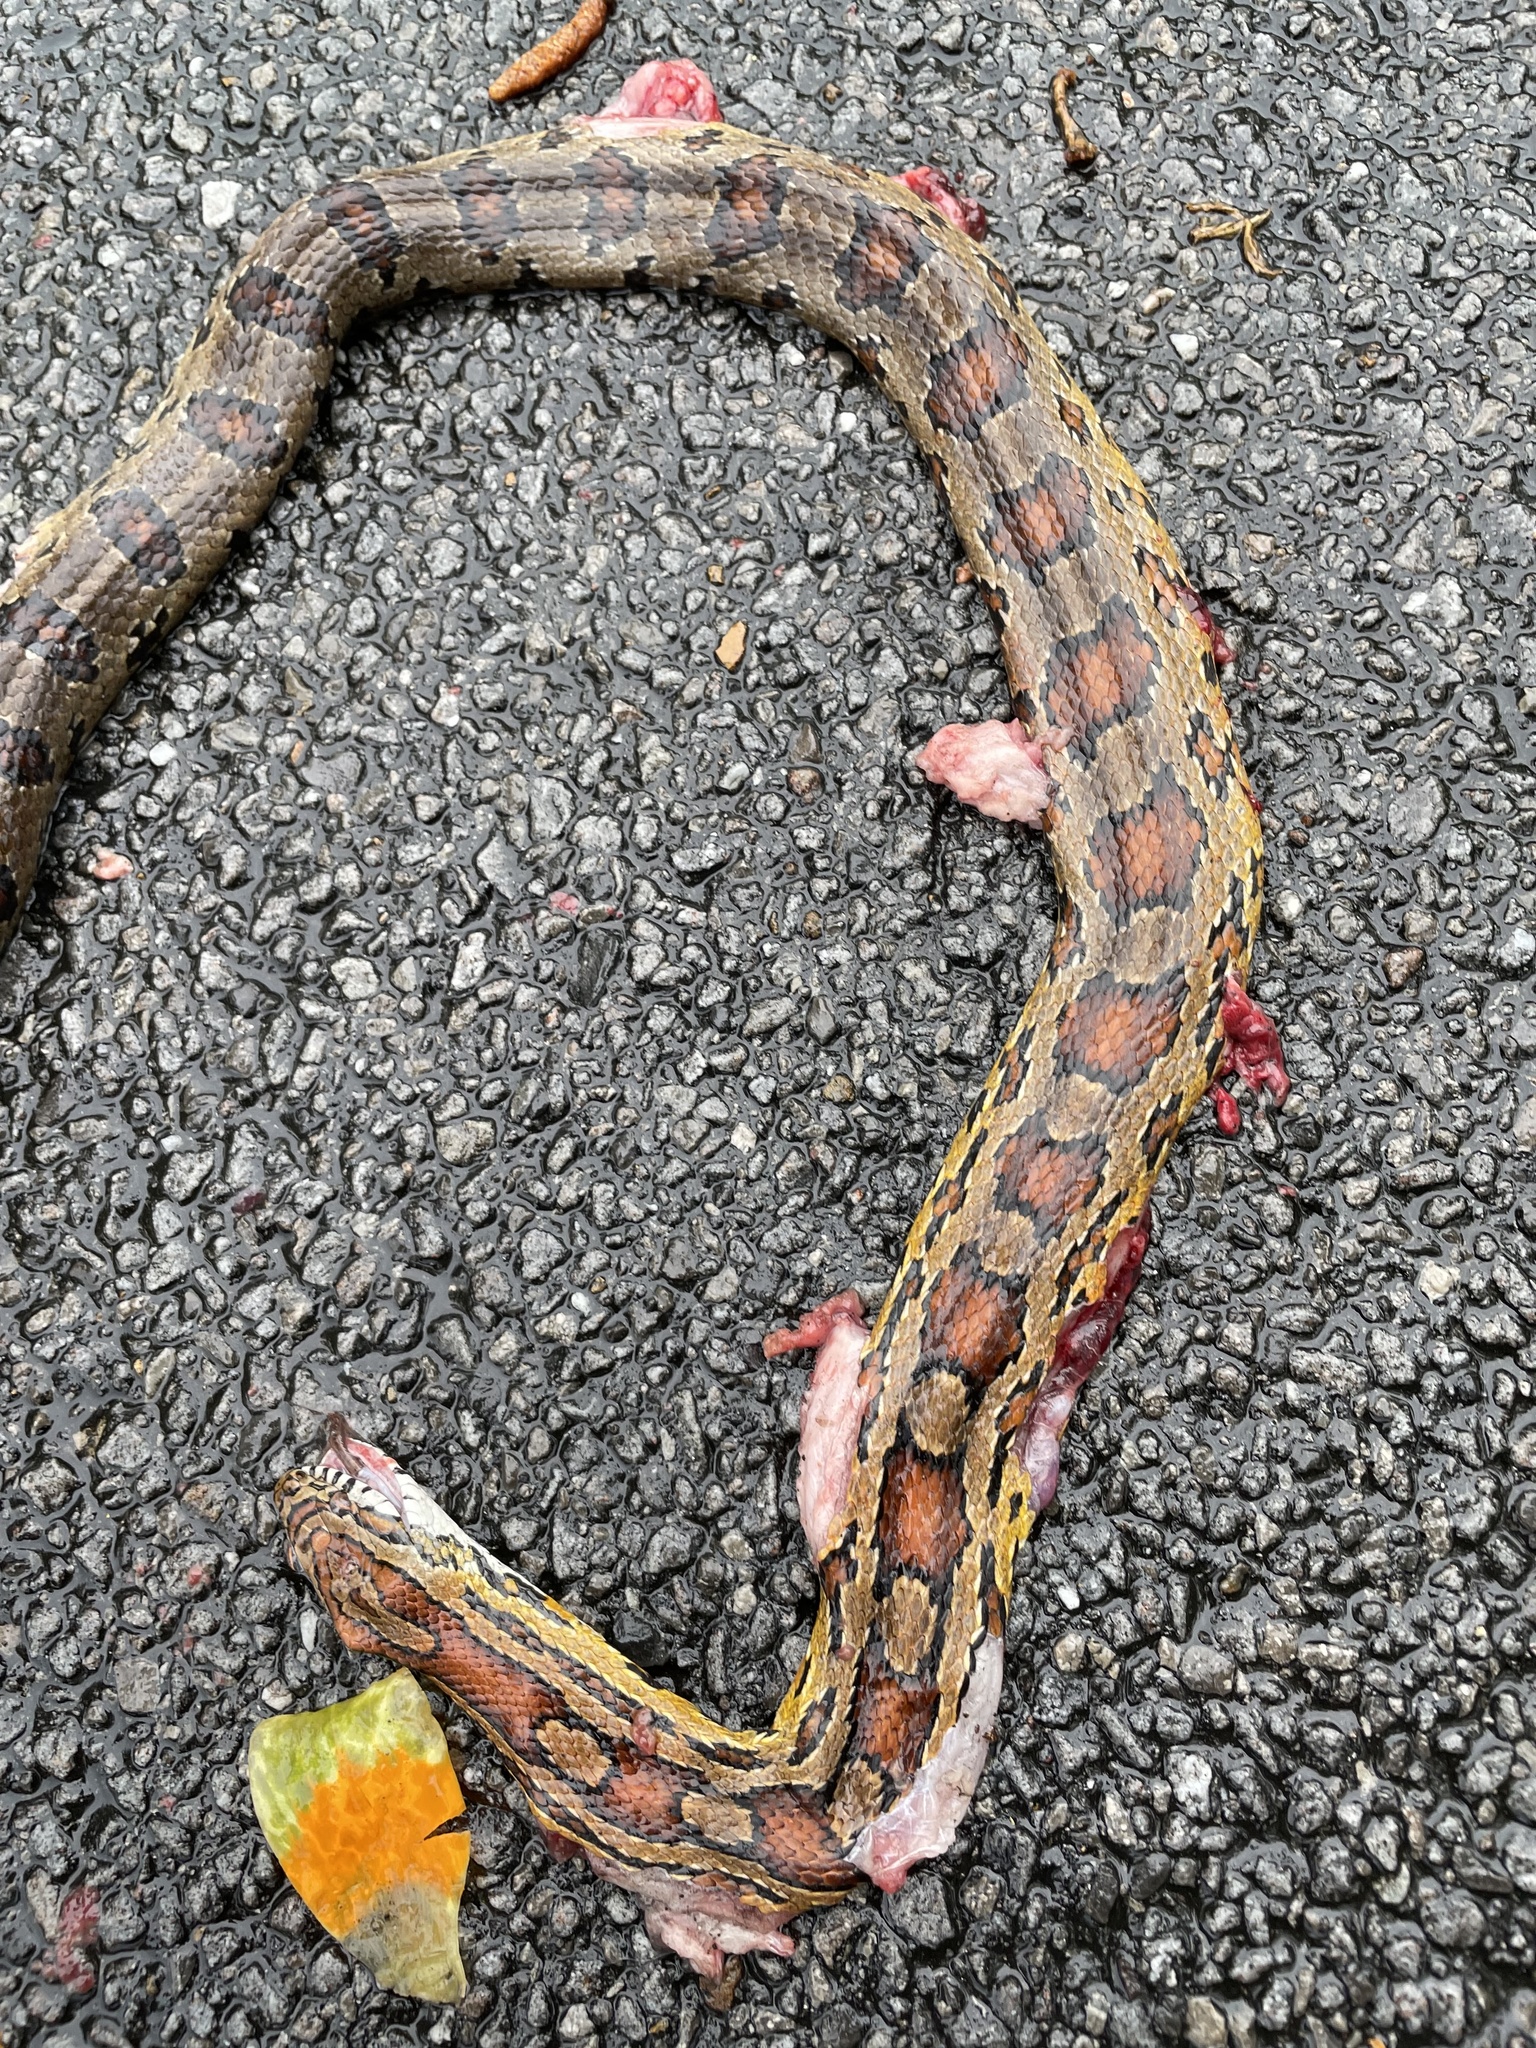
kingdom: Animalia
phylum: Chordata
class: Squamata
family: Colubridae
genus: Pantherophis
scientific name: Pantherophis guttatus
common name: Red cornsnake
